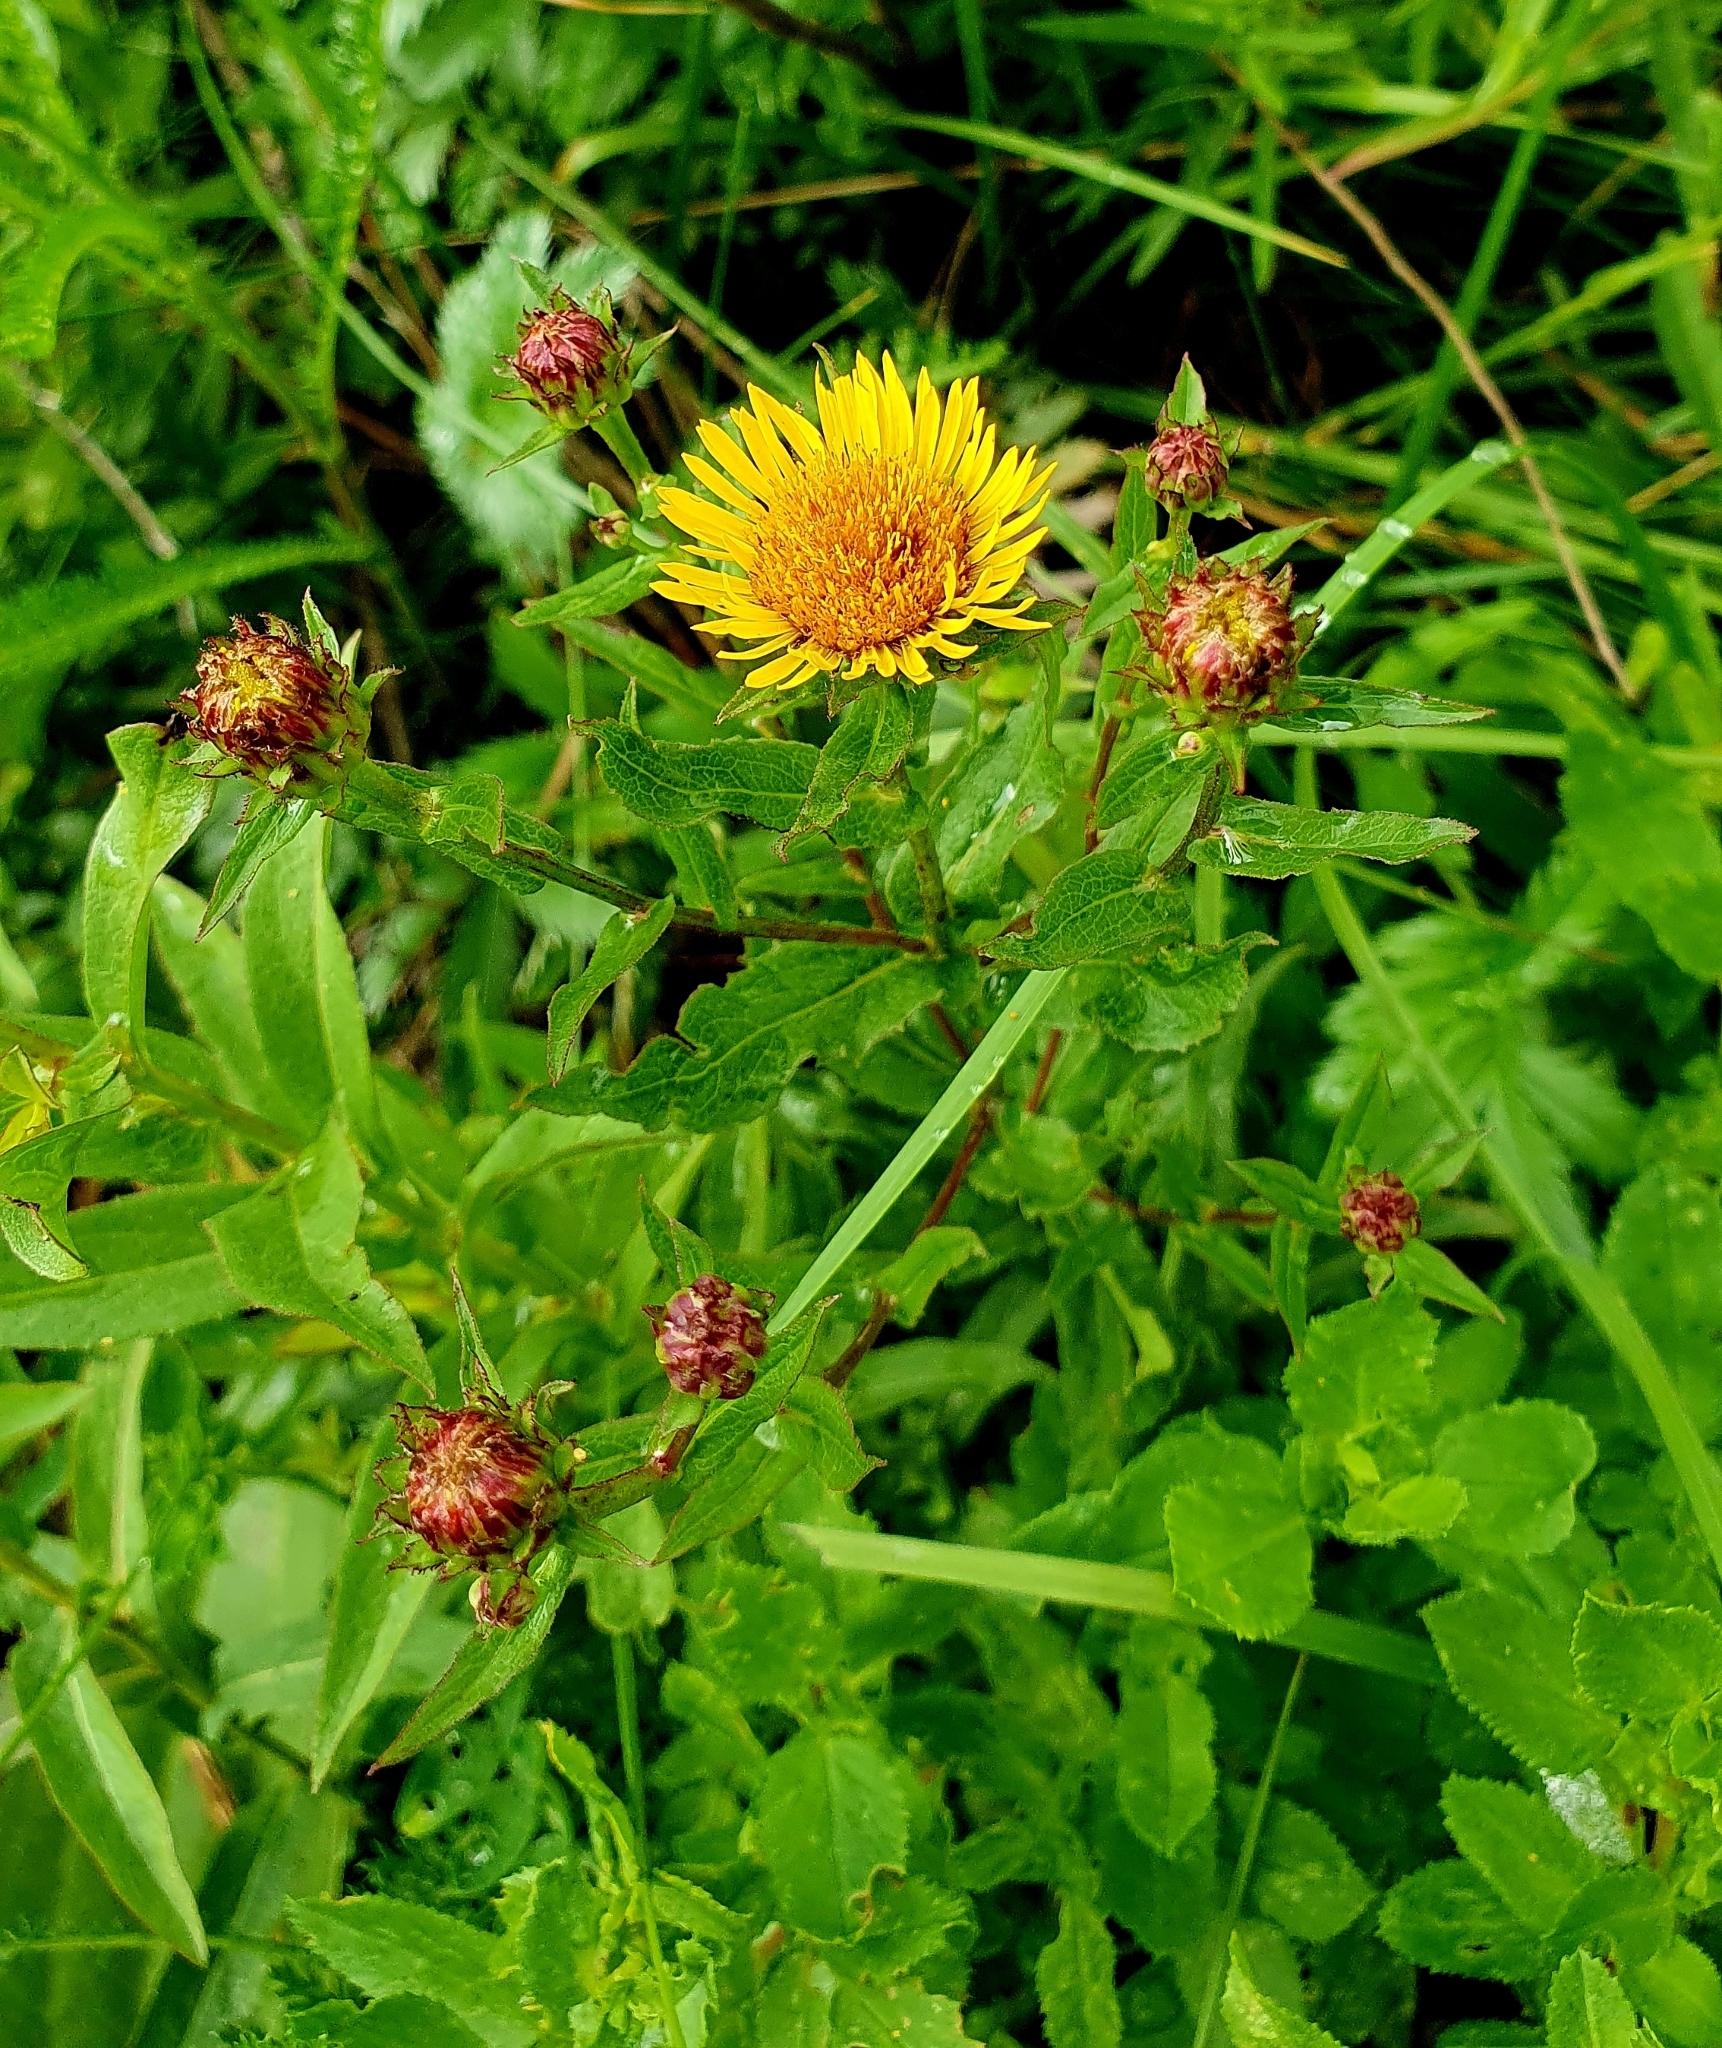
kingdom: Plantae
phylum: Tracheophyta
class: Magnoliopsida
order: Asterales
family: Asteraceae
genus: Pentanema
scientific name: Pentanema salicinum
